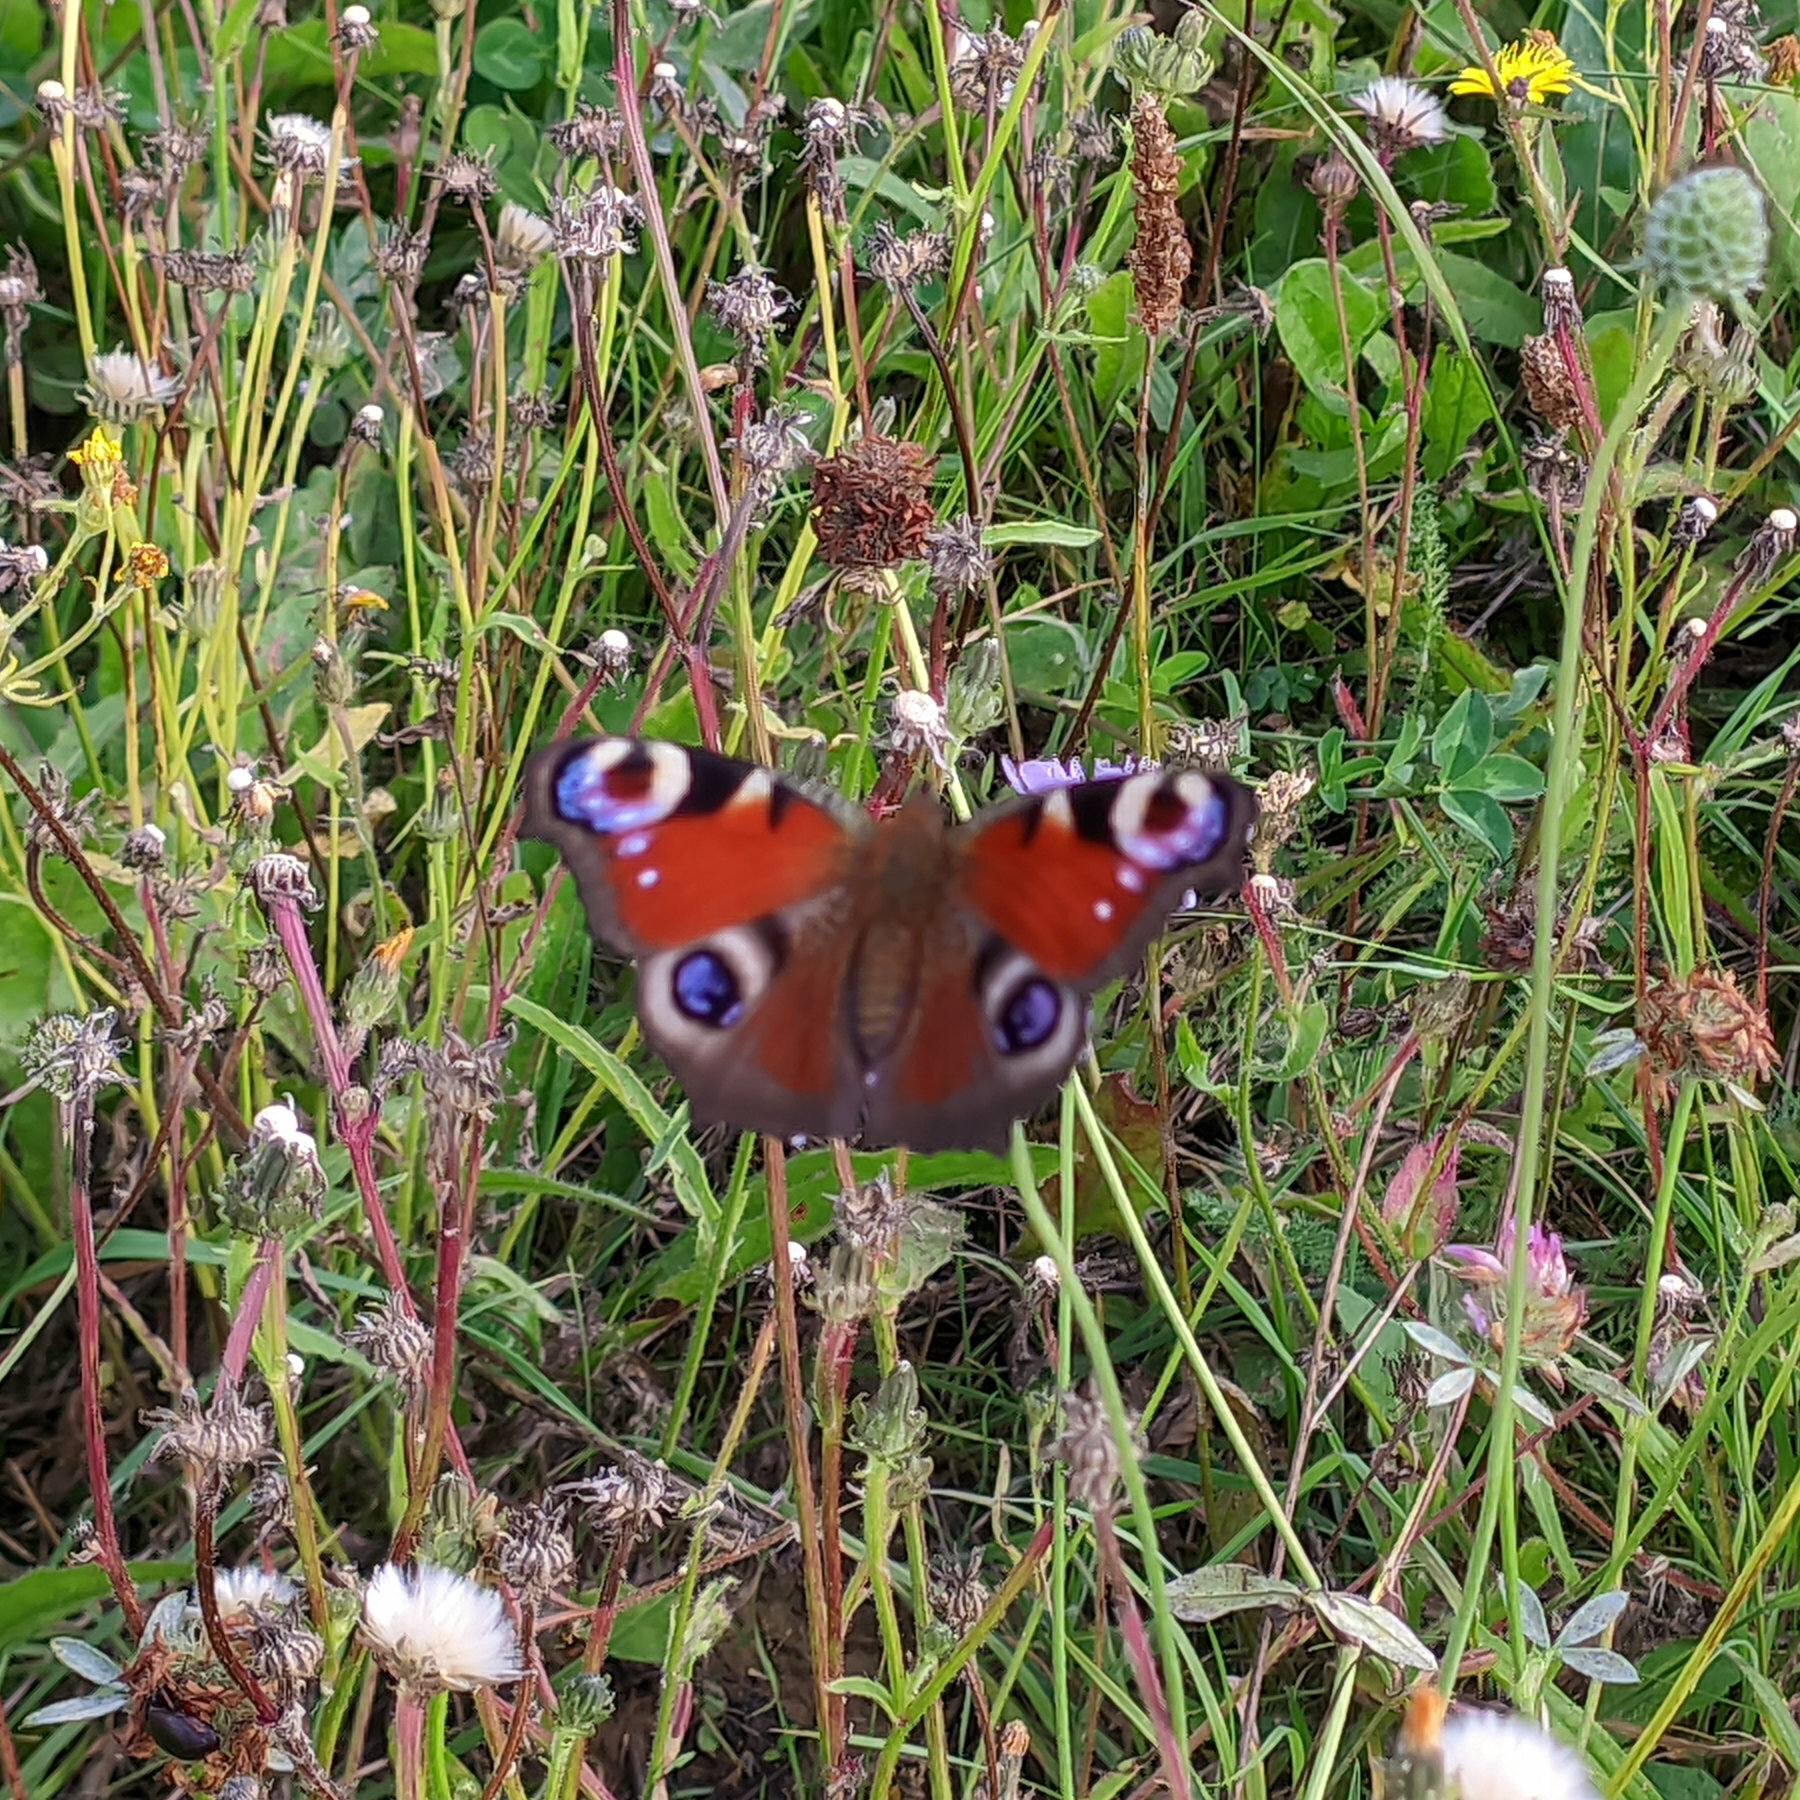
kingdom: Animalia
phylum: Arthropoda
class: Insecta
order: Lepidoptera
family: Nymphalidae
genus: Aglais
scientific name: Aglais io
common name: Peacock
